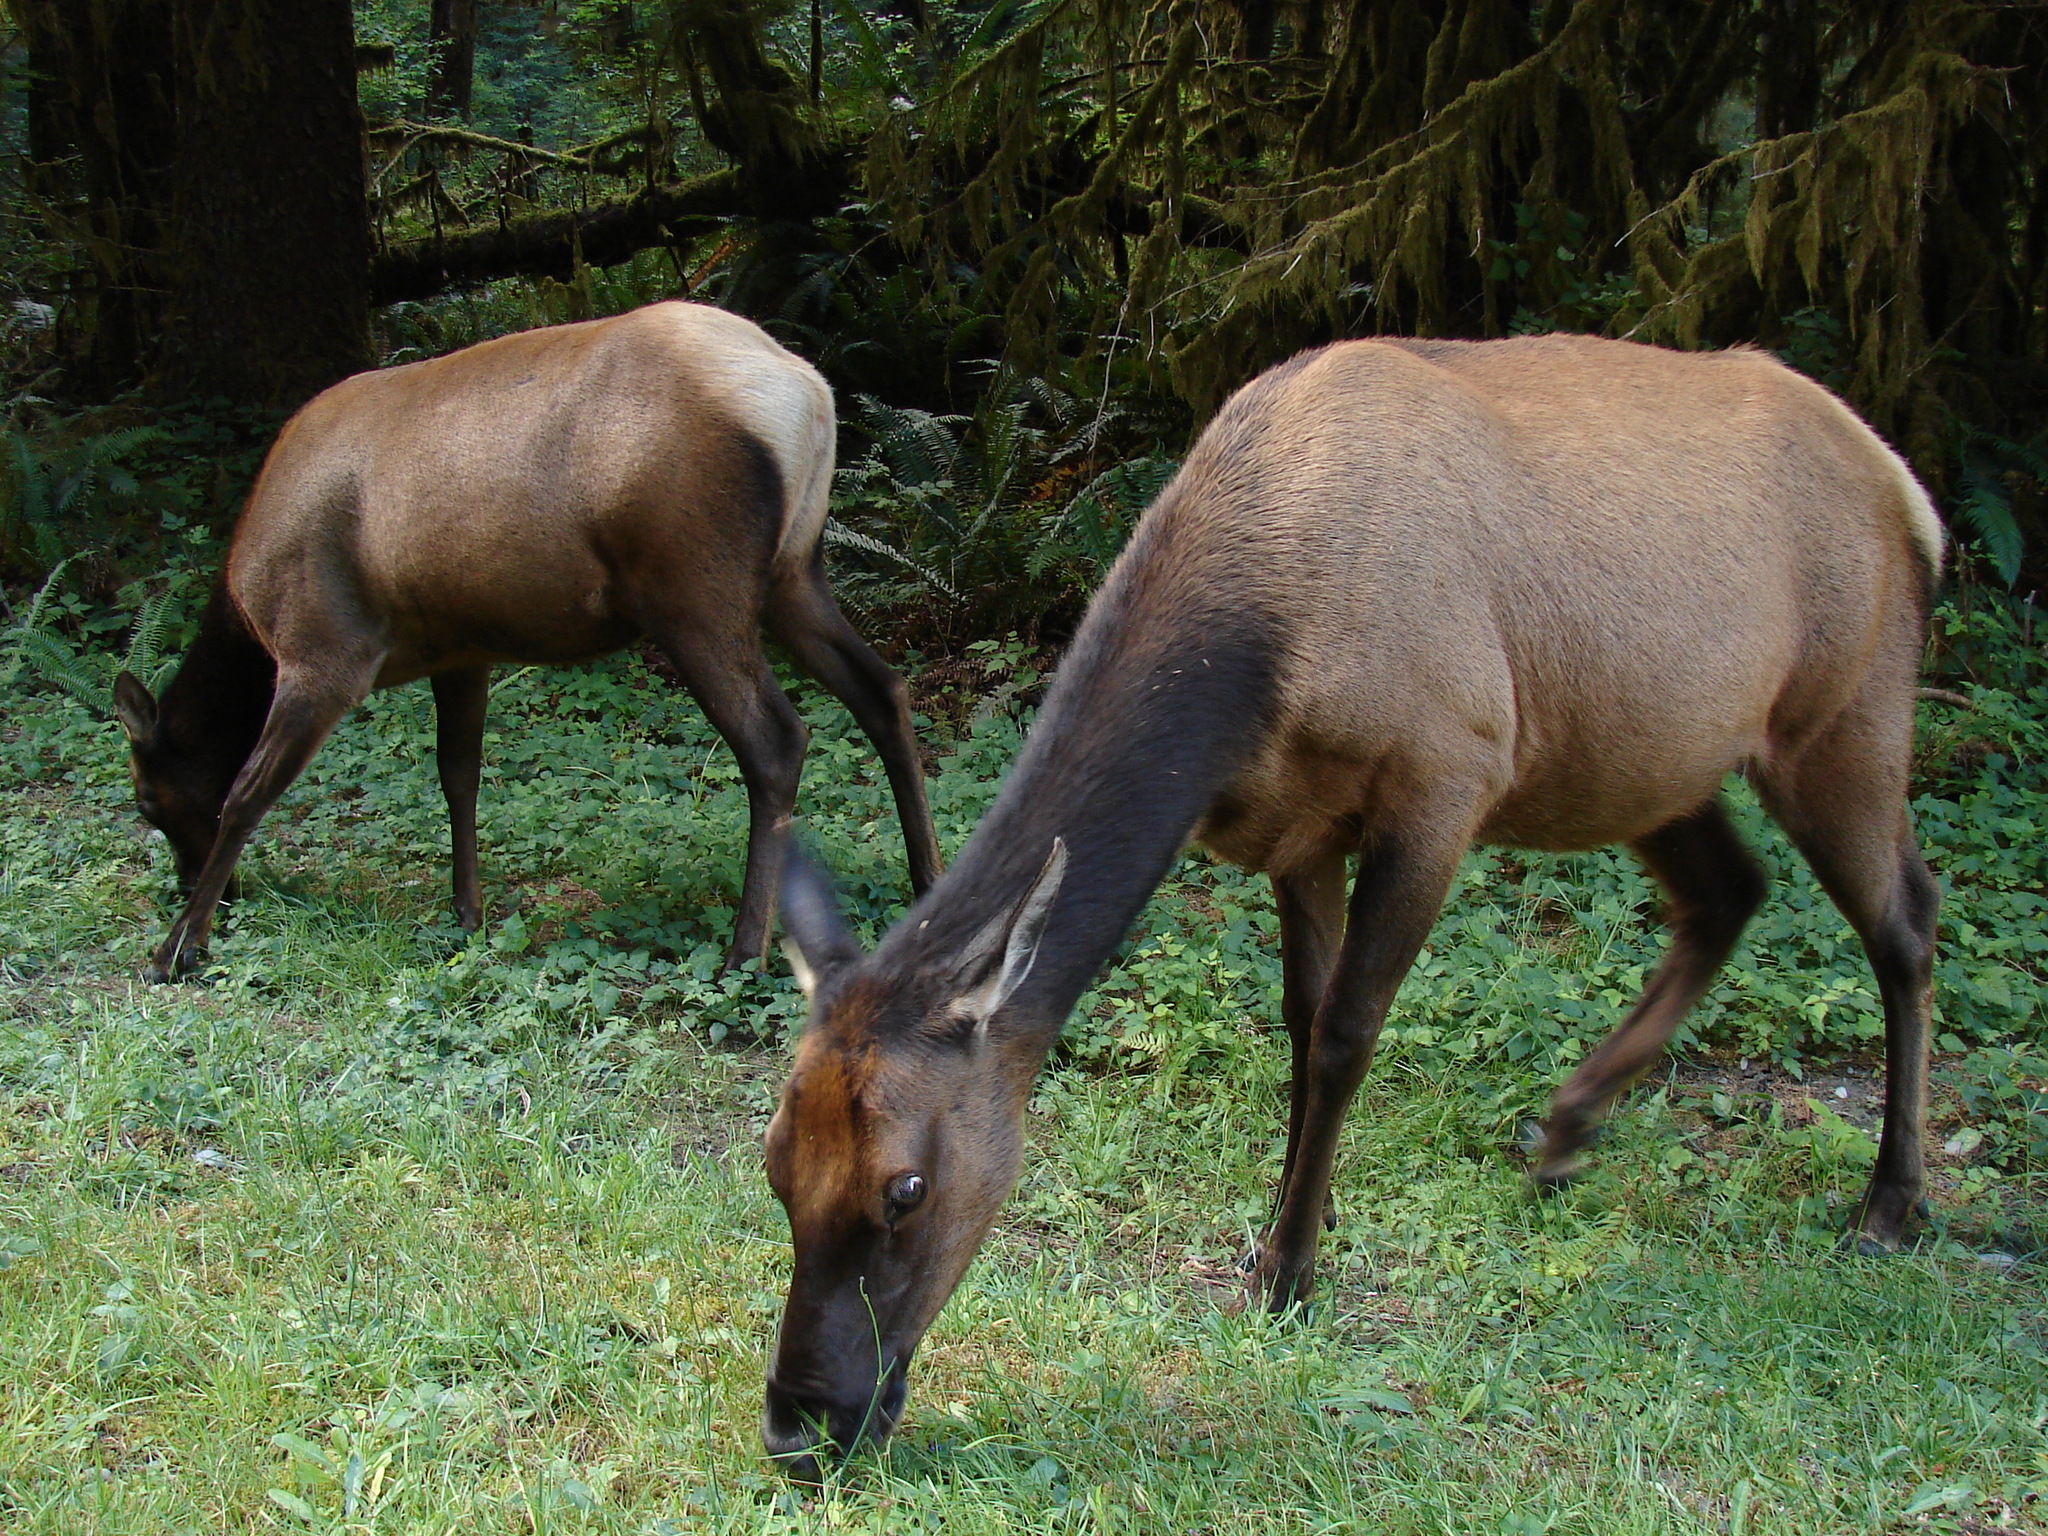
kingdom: Animalia
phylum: Chordata
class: Mammalia
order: Artiodactyla
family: Cervidae
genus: Cervus
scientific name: Cervus elaphus
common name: Red deer
